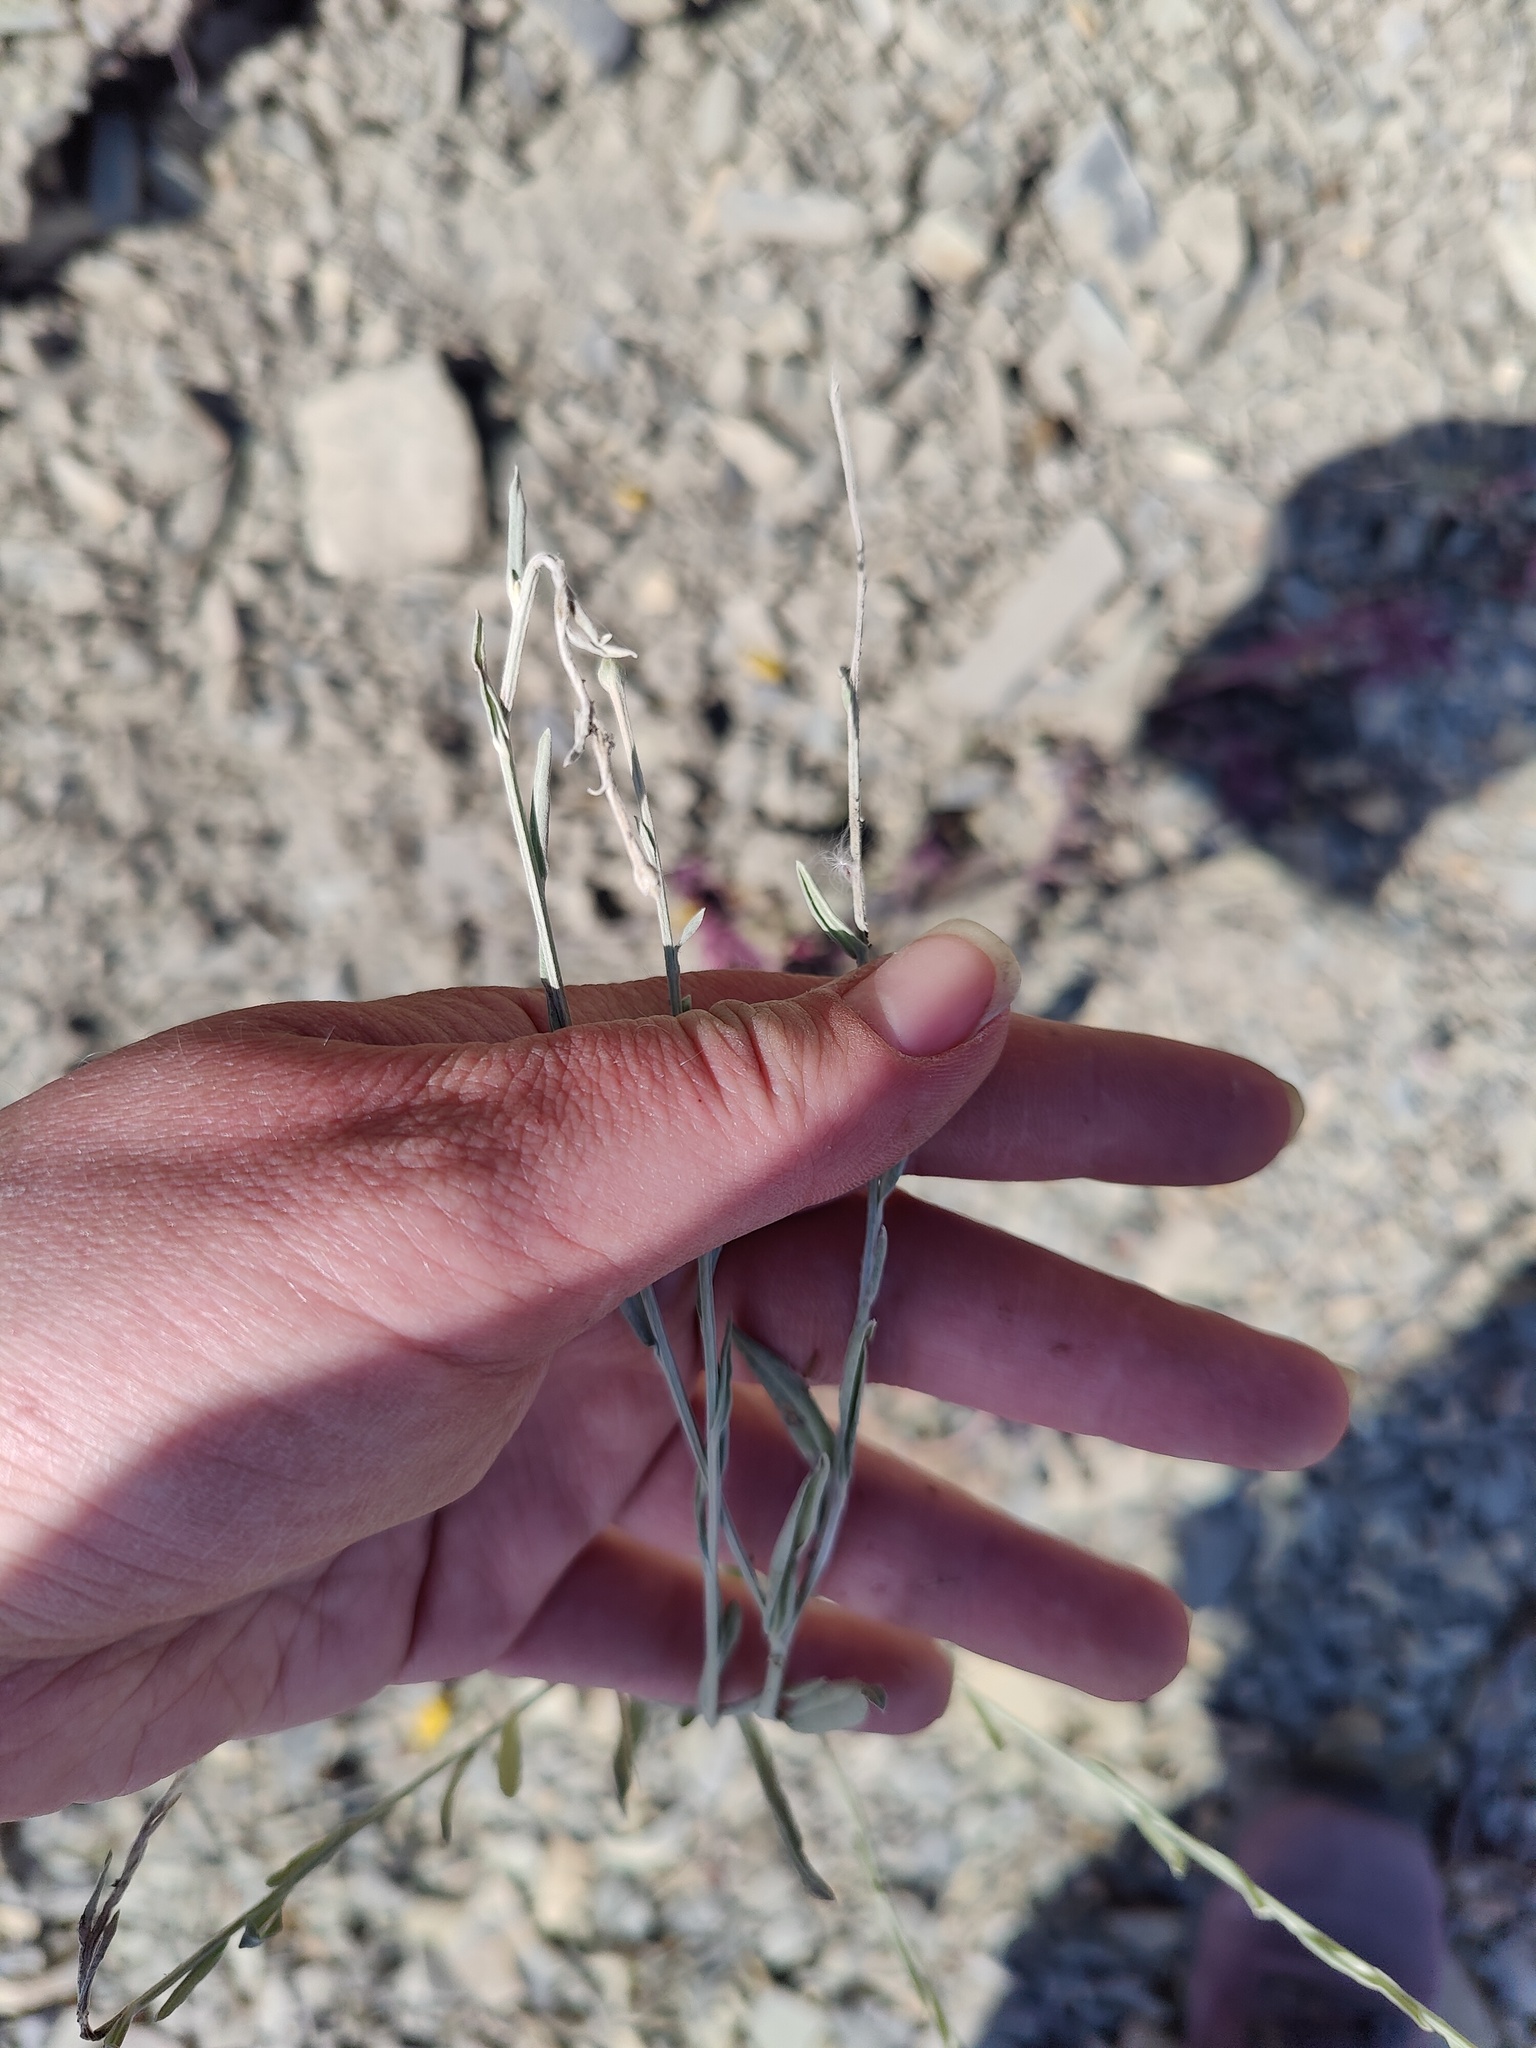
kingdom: Plantae
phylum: Tracheophyta
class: Magnoliopsida
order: Asterales
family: Asteraceae
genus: Xeranthemum
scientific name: Xeranthemum cylindraceum
